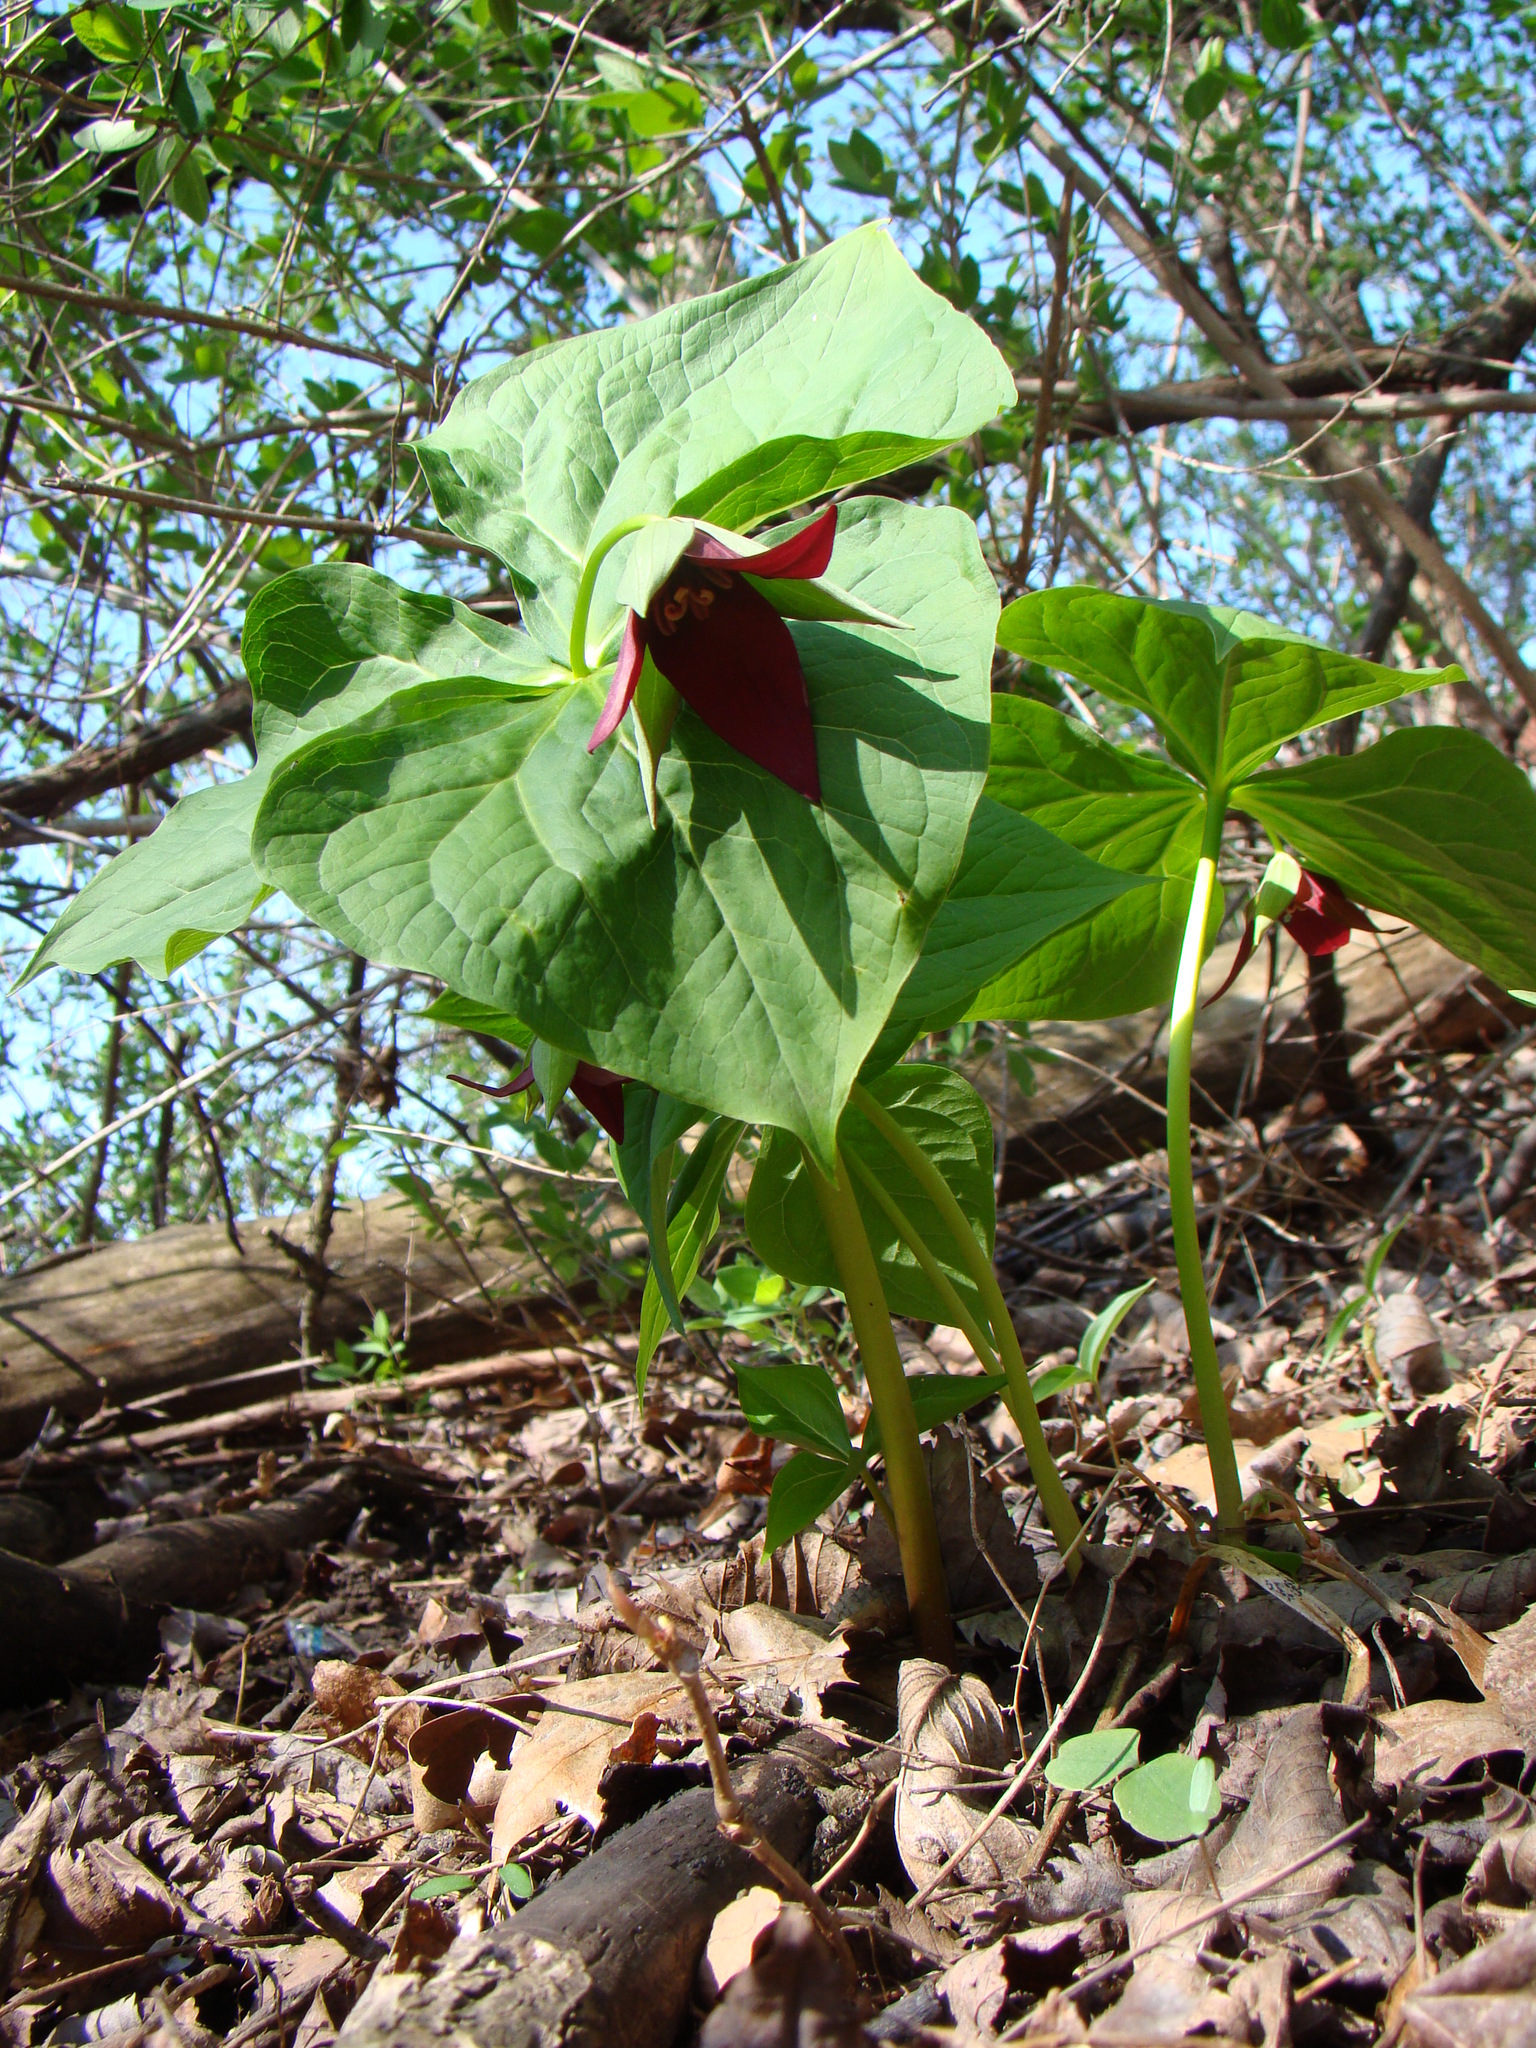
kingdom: Plantae
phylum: Tracheophyta
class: Liliopsida
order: Liliales
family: Melanthiaceae
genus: Trillium
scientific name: Trillium erectum
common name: Purple trillium
